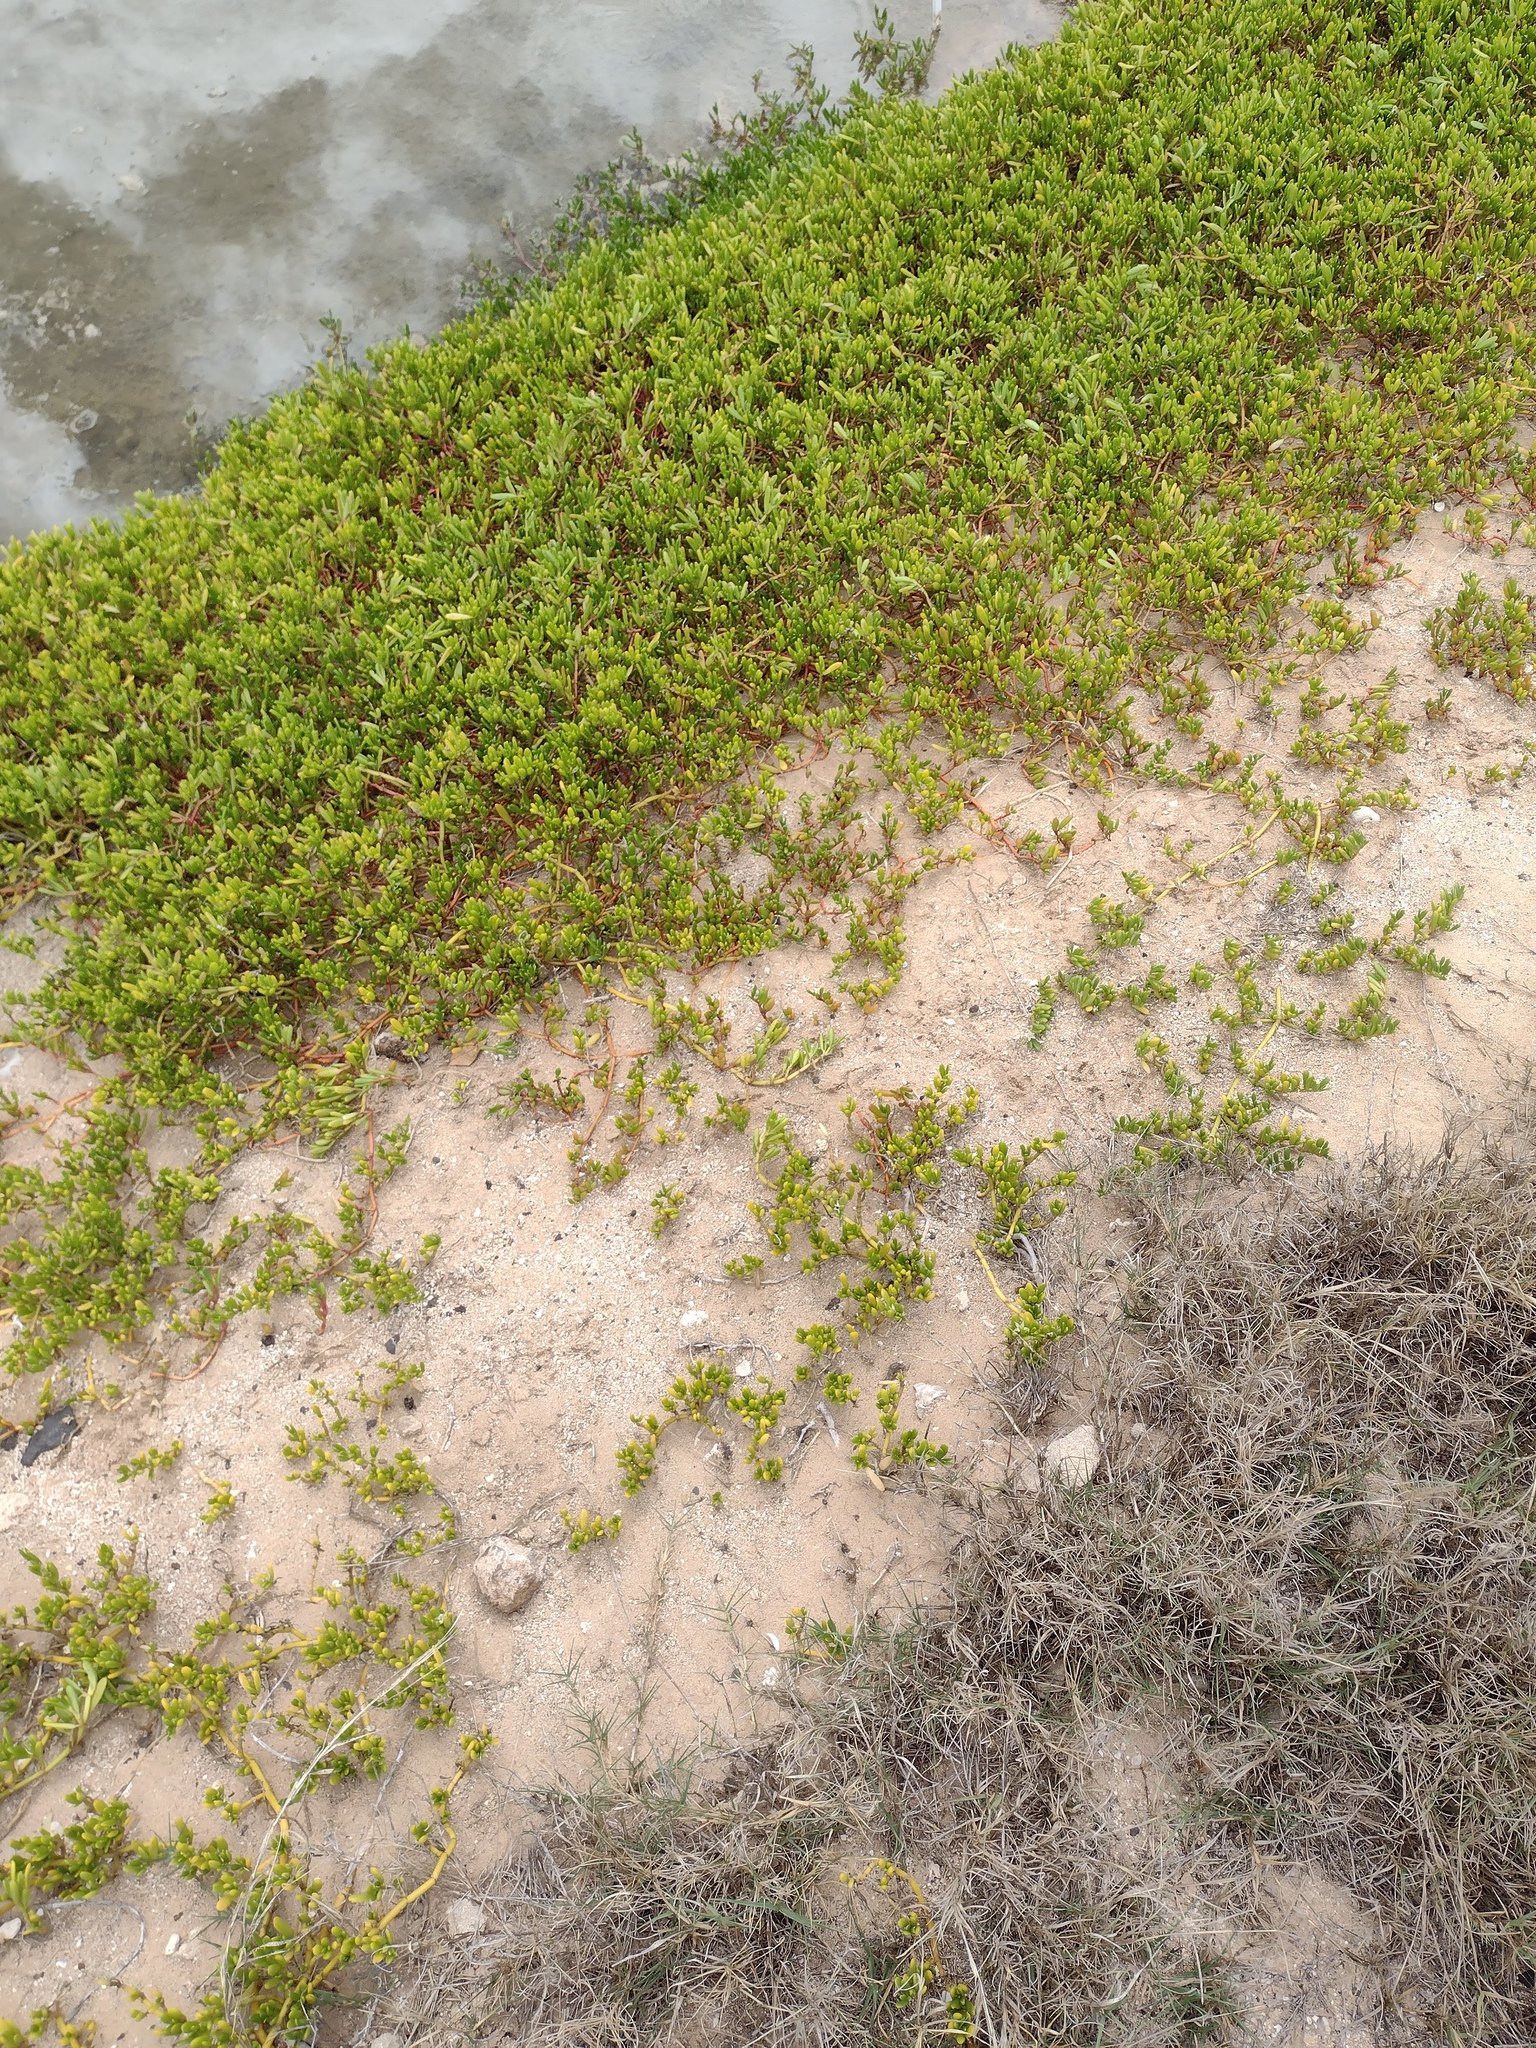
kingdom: Plantae
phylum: Tracheophyta
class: Magnoliopsida
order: Caryophyllales
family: Aizoaceae
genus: Sesuvium
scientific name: Sesuvium portulacastrum
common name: Sea-purslane
